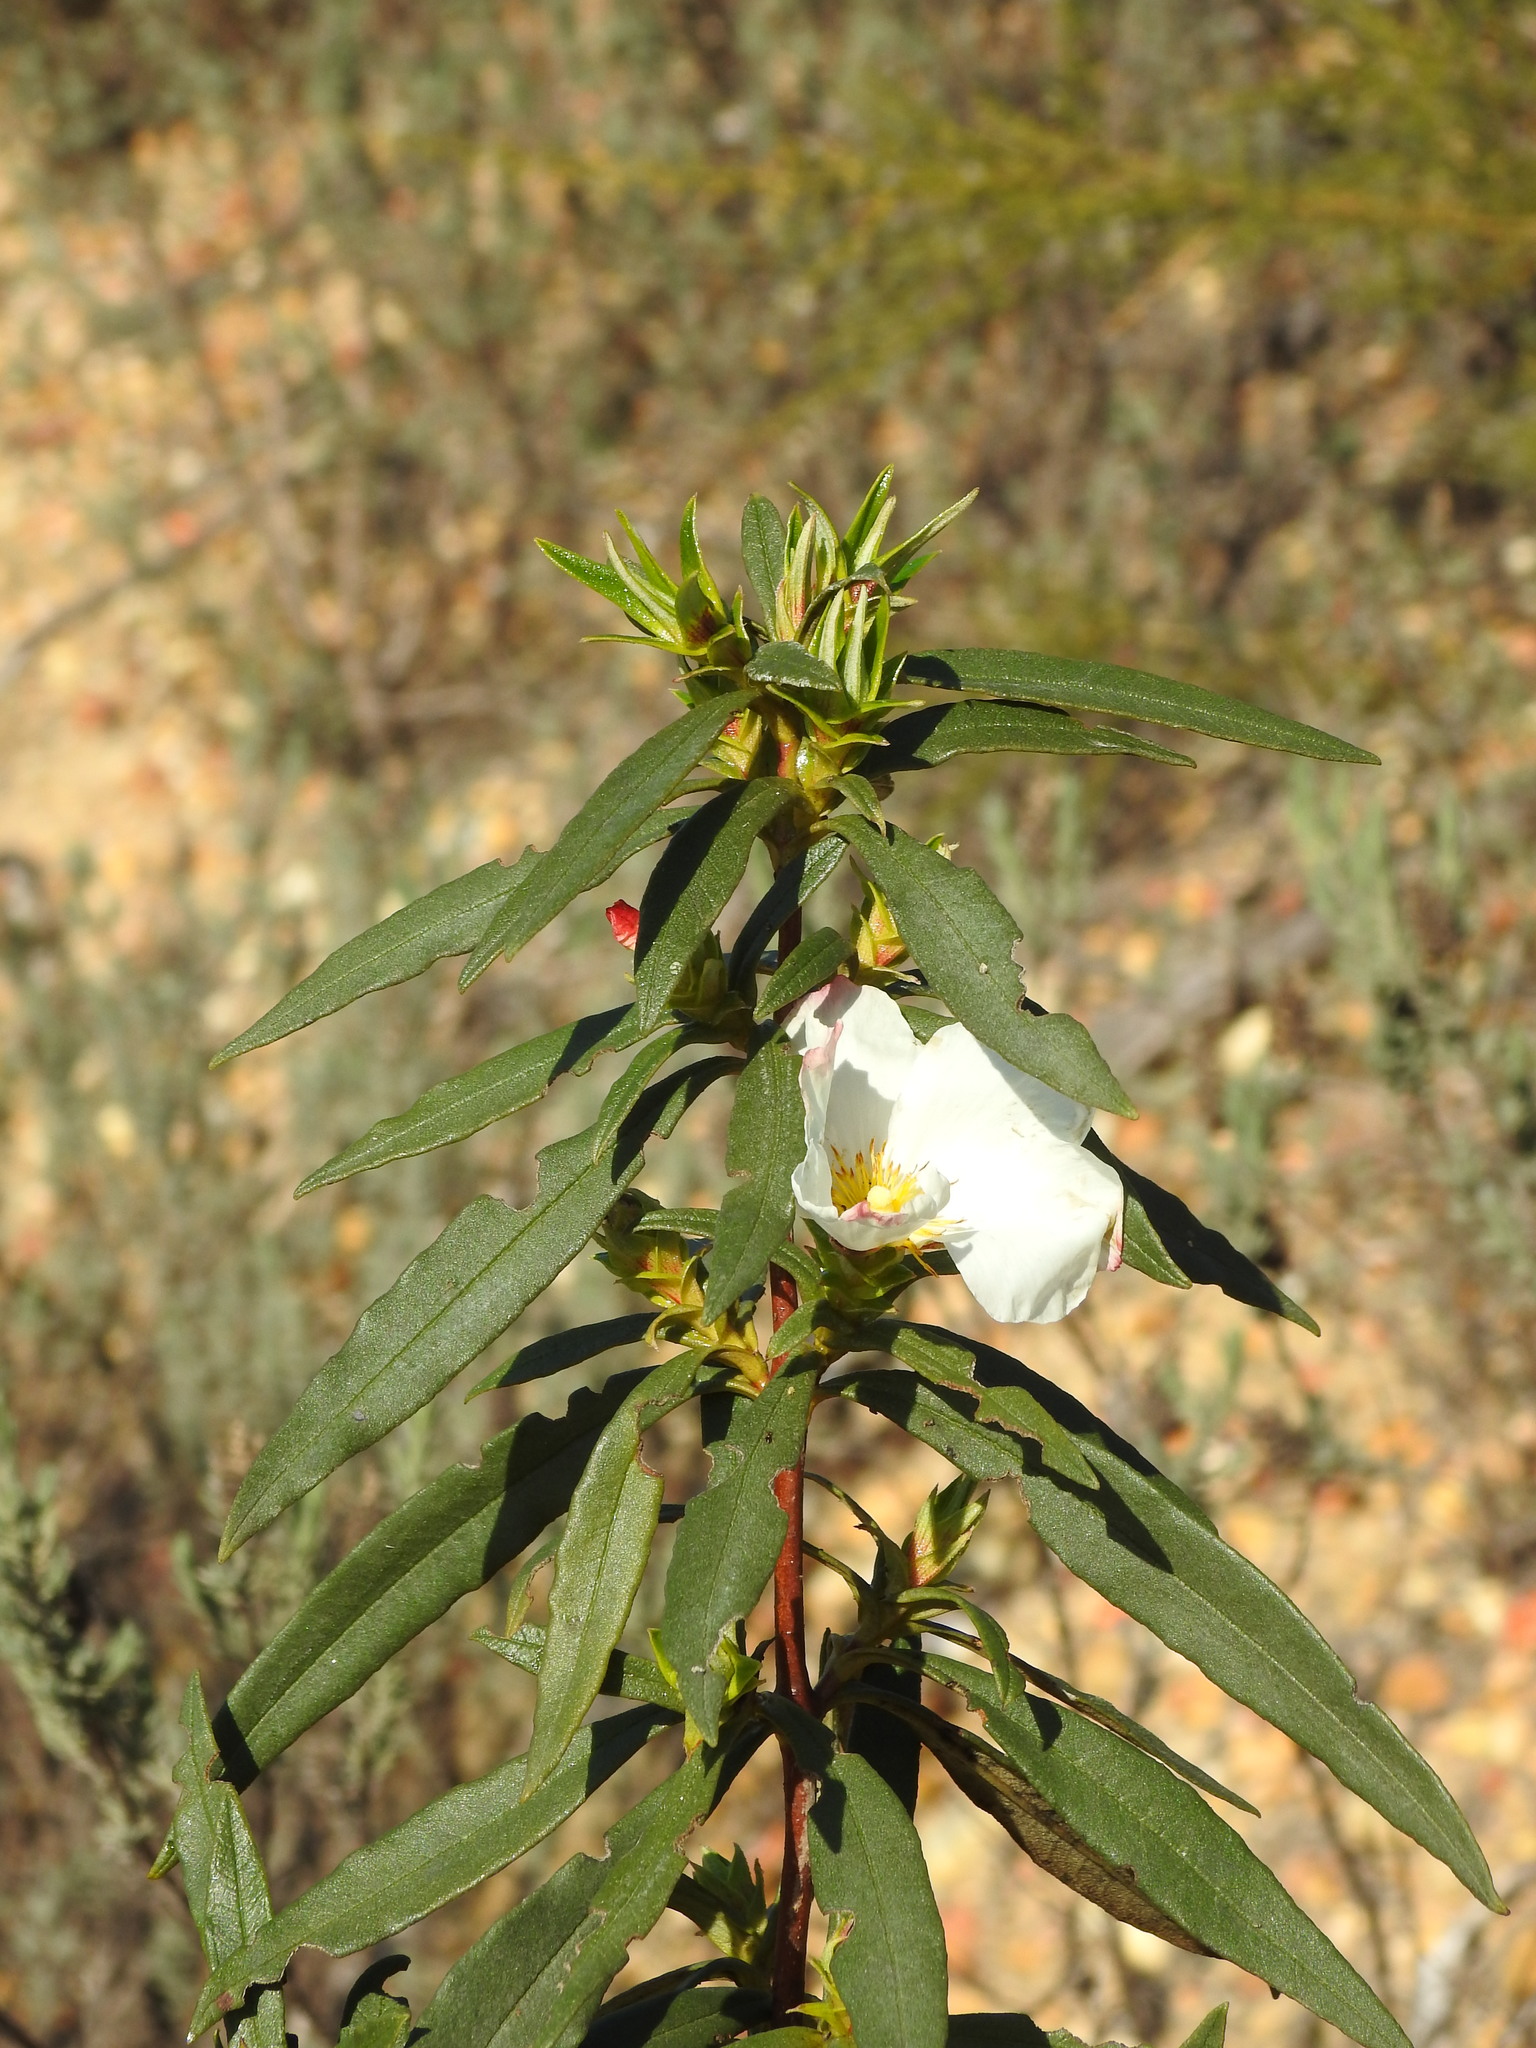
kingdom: Plantae
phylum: Tracheophyta
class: Magnoliopsida
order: Malvales
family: Cistaceae
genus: Cistus
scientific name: Cistus ladanifer
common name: Common gum cistus
